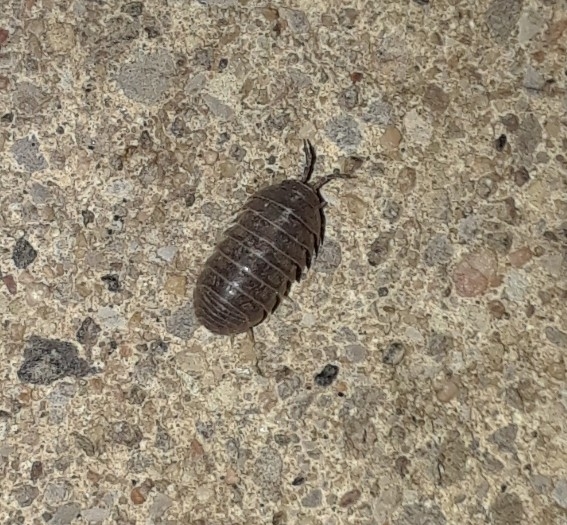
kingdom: Animalia
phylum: Arthropoda
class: Malacostraca
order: Isopoda
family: Armadillidiidae
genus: Armadillidium
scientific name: Armadillidium vulgare
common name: Common pill woodlouse
